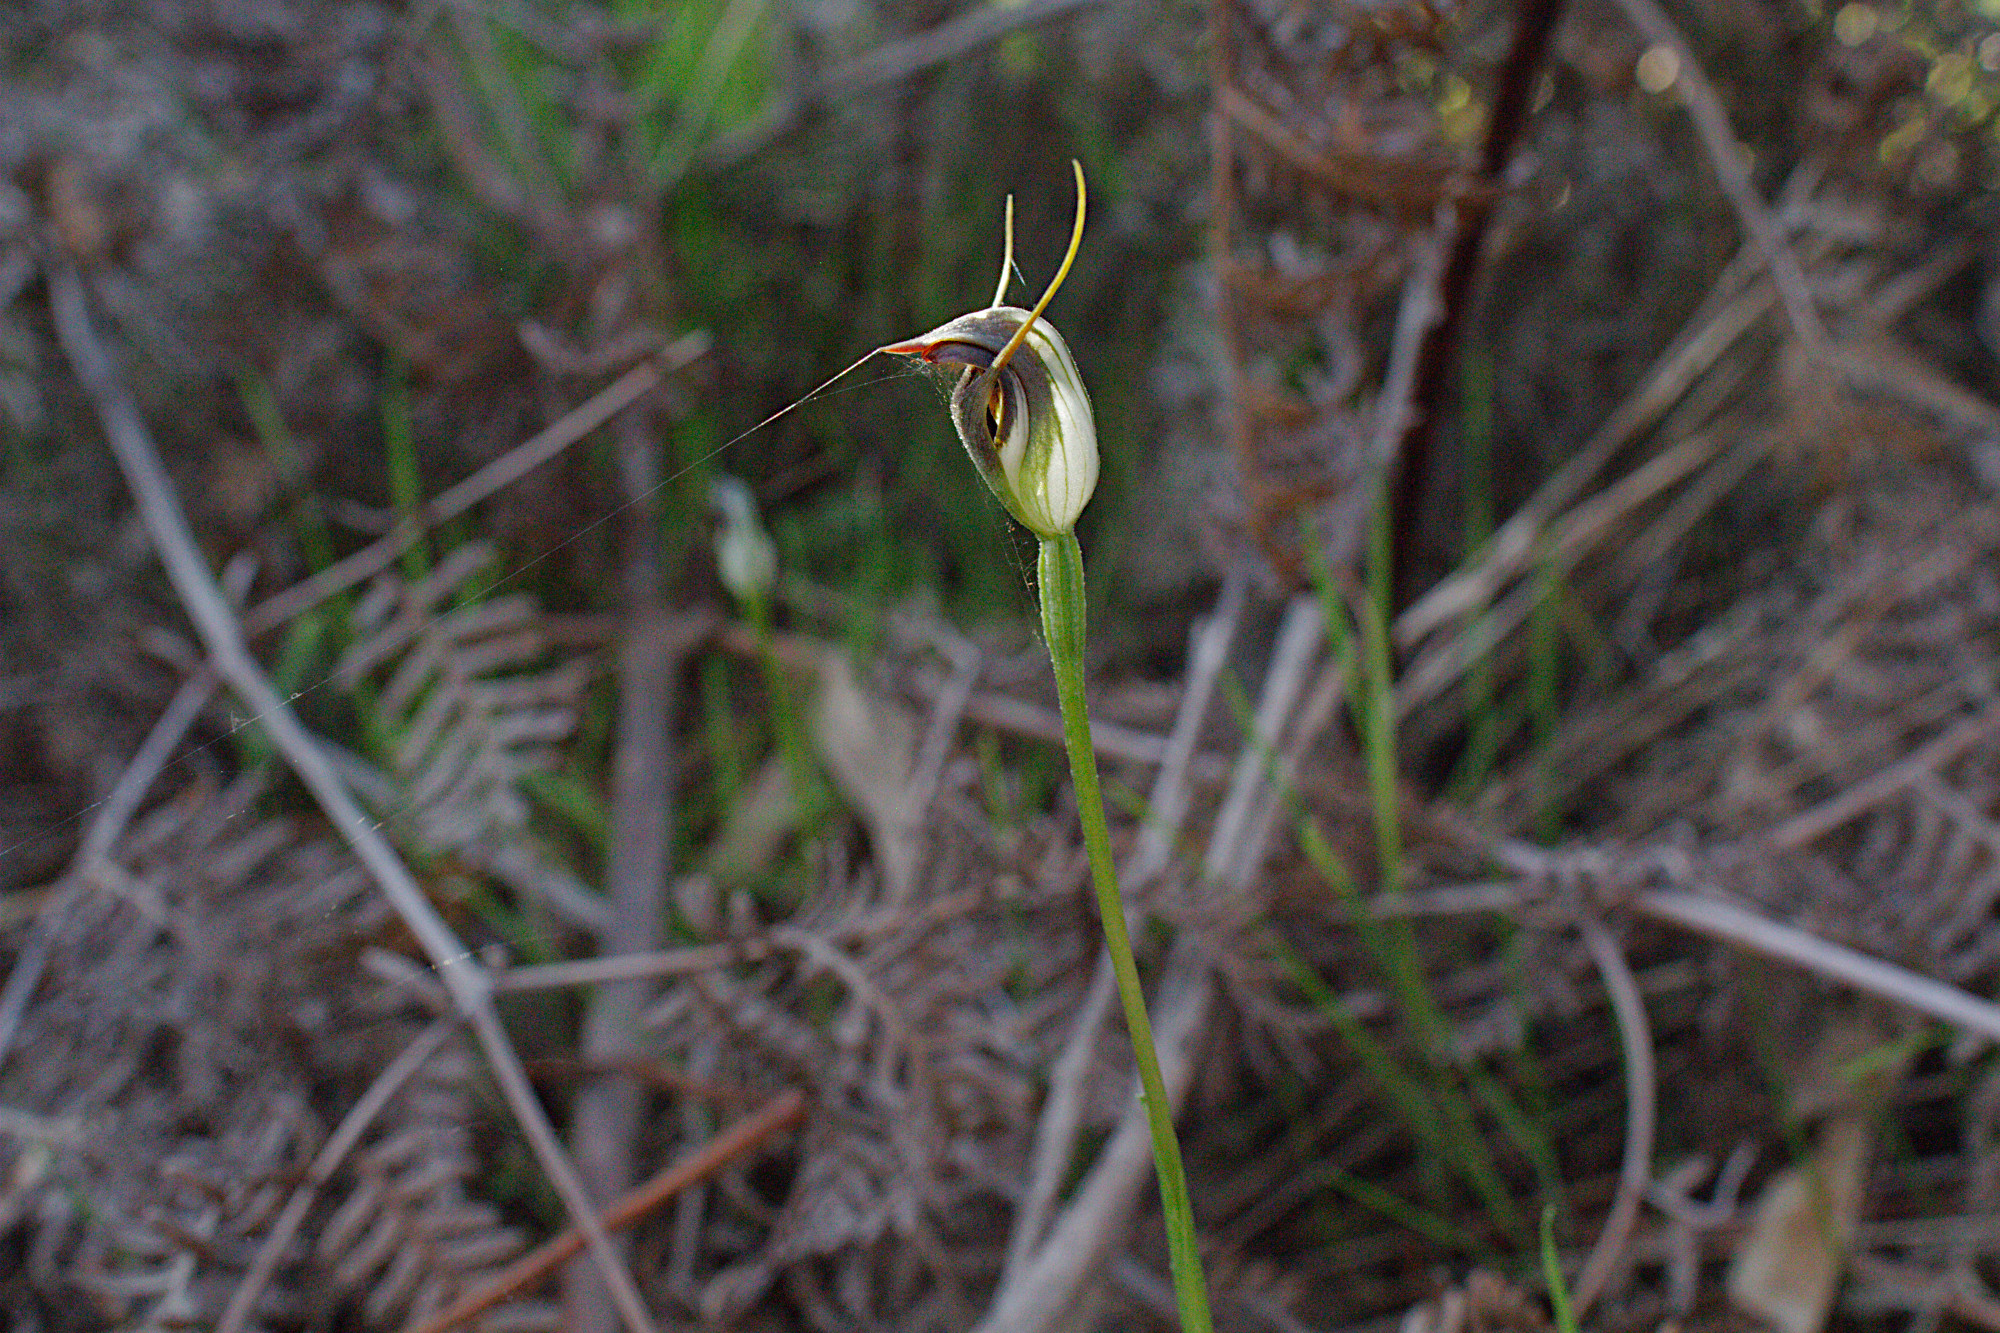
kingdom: Plantae
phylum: Tracheophyta
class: Liliopsida
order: Asparagales
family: Orchidaceae
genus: Pterostylis
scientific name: Pterostylis pedunculata
